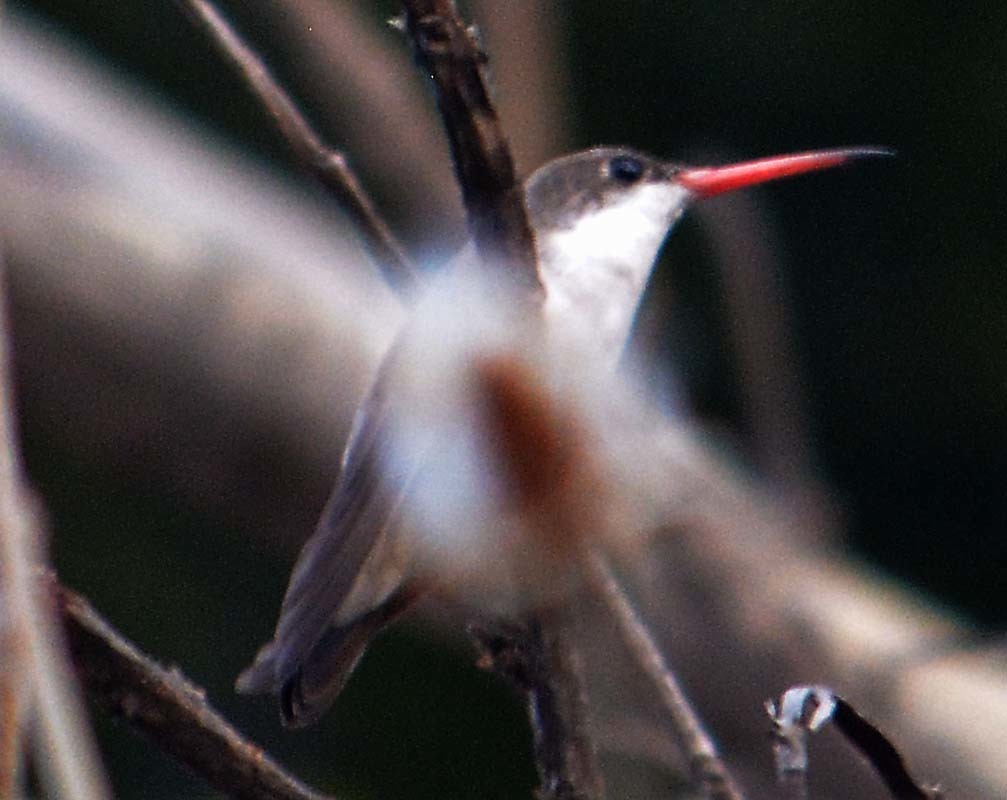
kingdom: Animalia
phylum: Chordata
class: Aves
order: Apodiformes
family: Trochilidae
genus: Leucolia
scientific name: Leucolia violiceps
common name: Violet-crowned hummingbird
